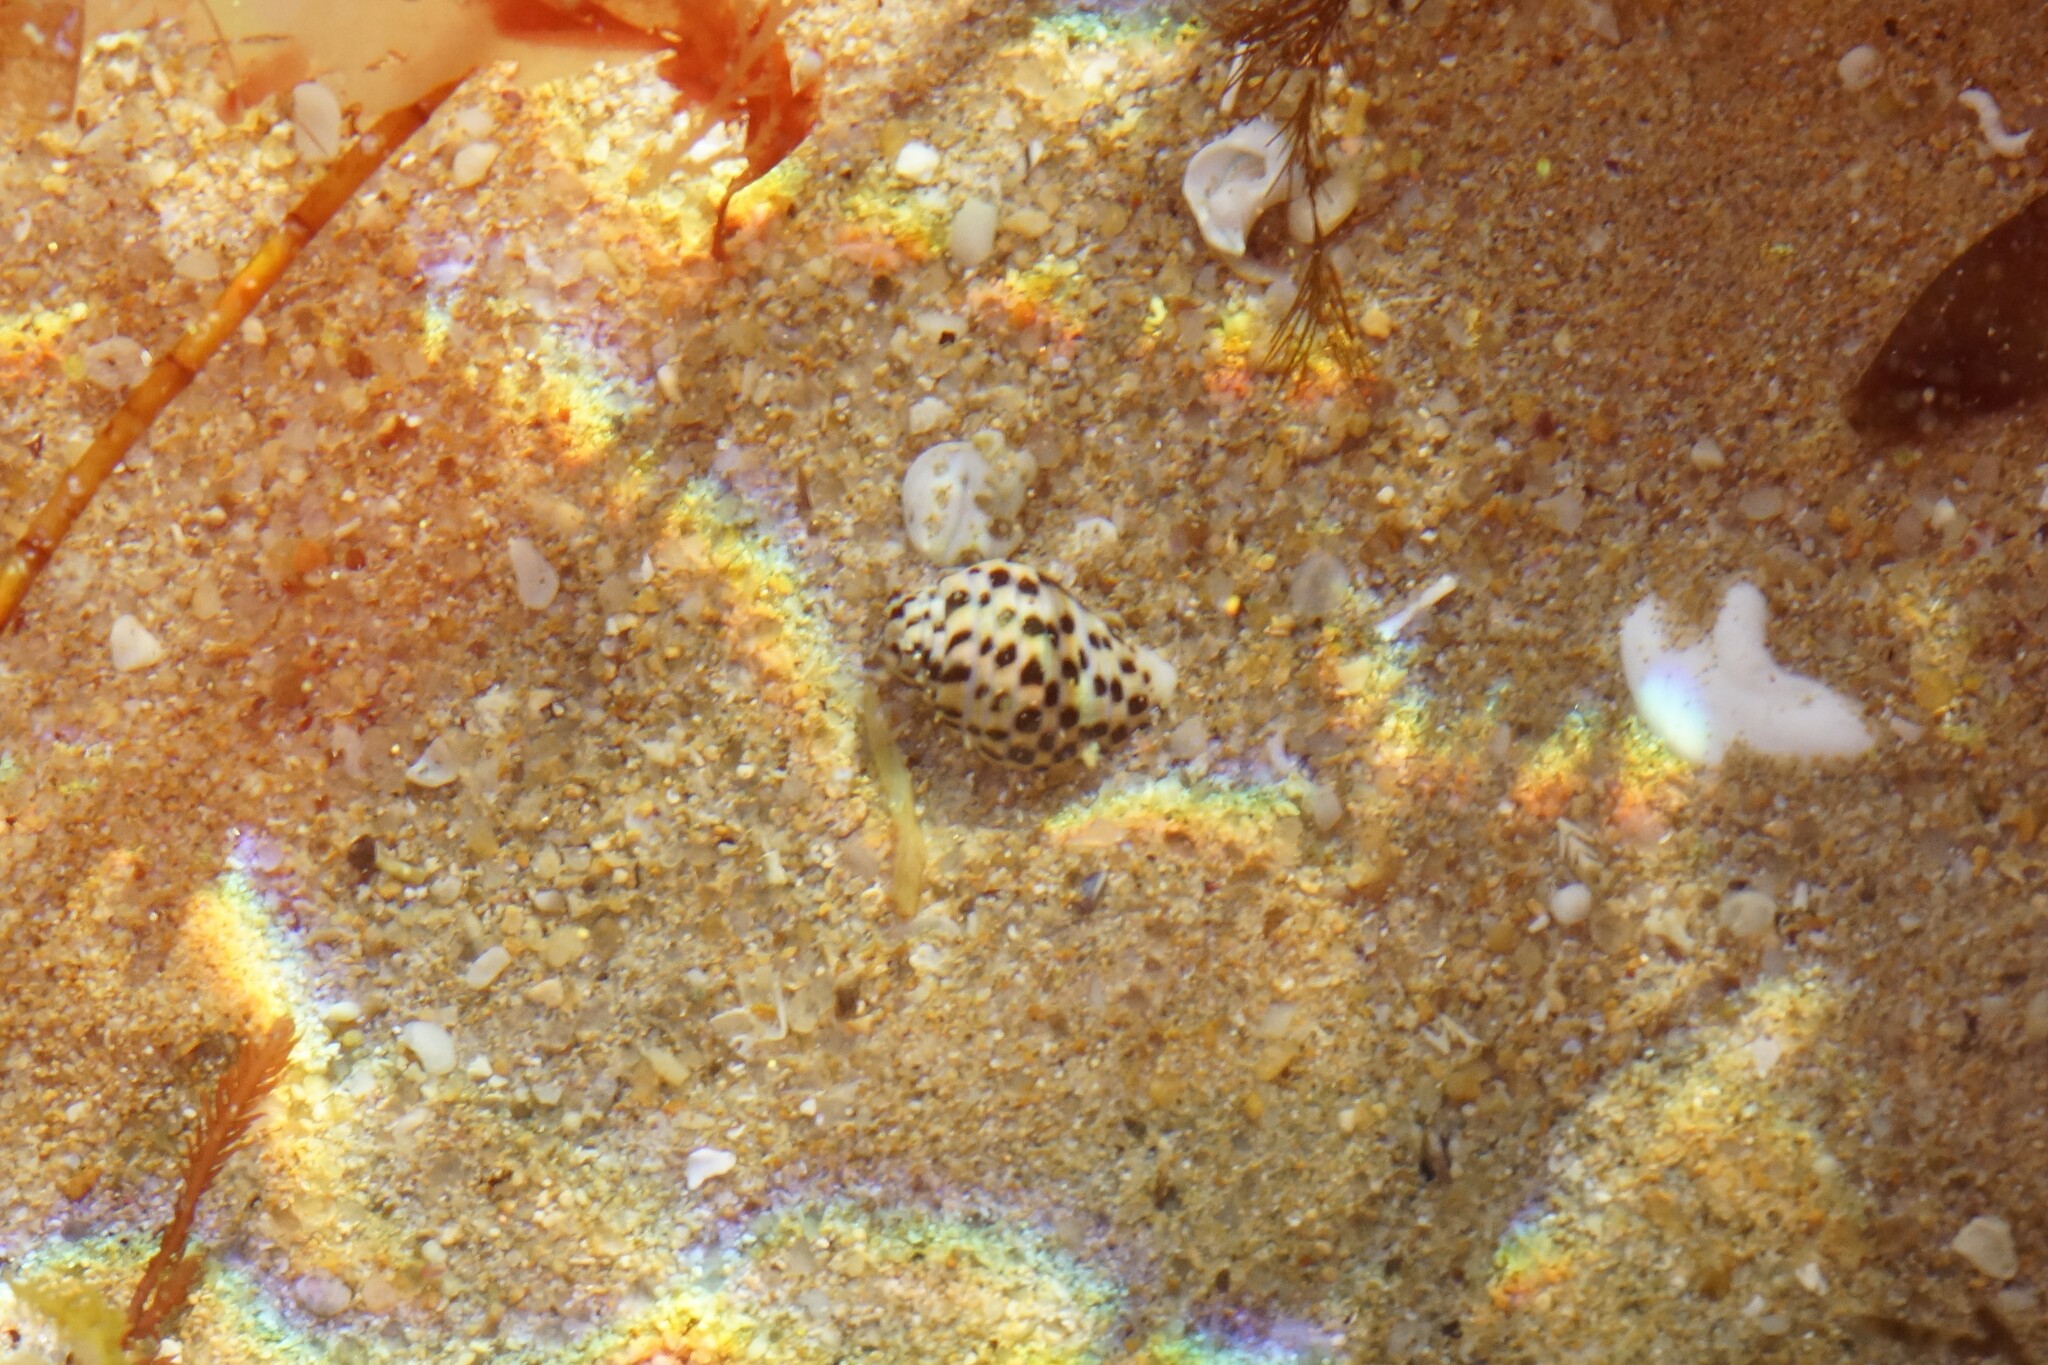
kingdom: Animalia
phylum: Mollusca
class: Gastropoda
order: Neogastropoda
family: Cominellidae
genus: Cominella
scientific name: Cominella lineolata
